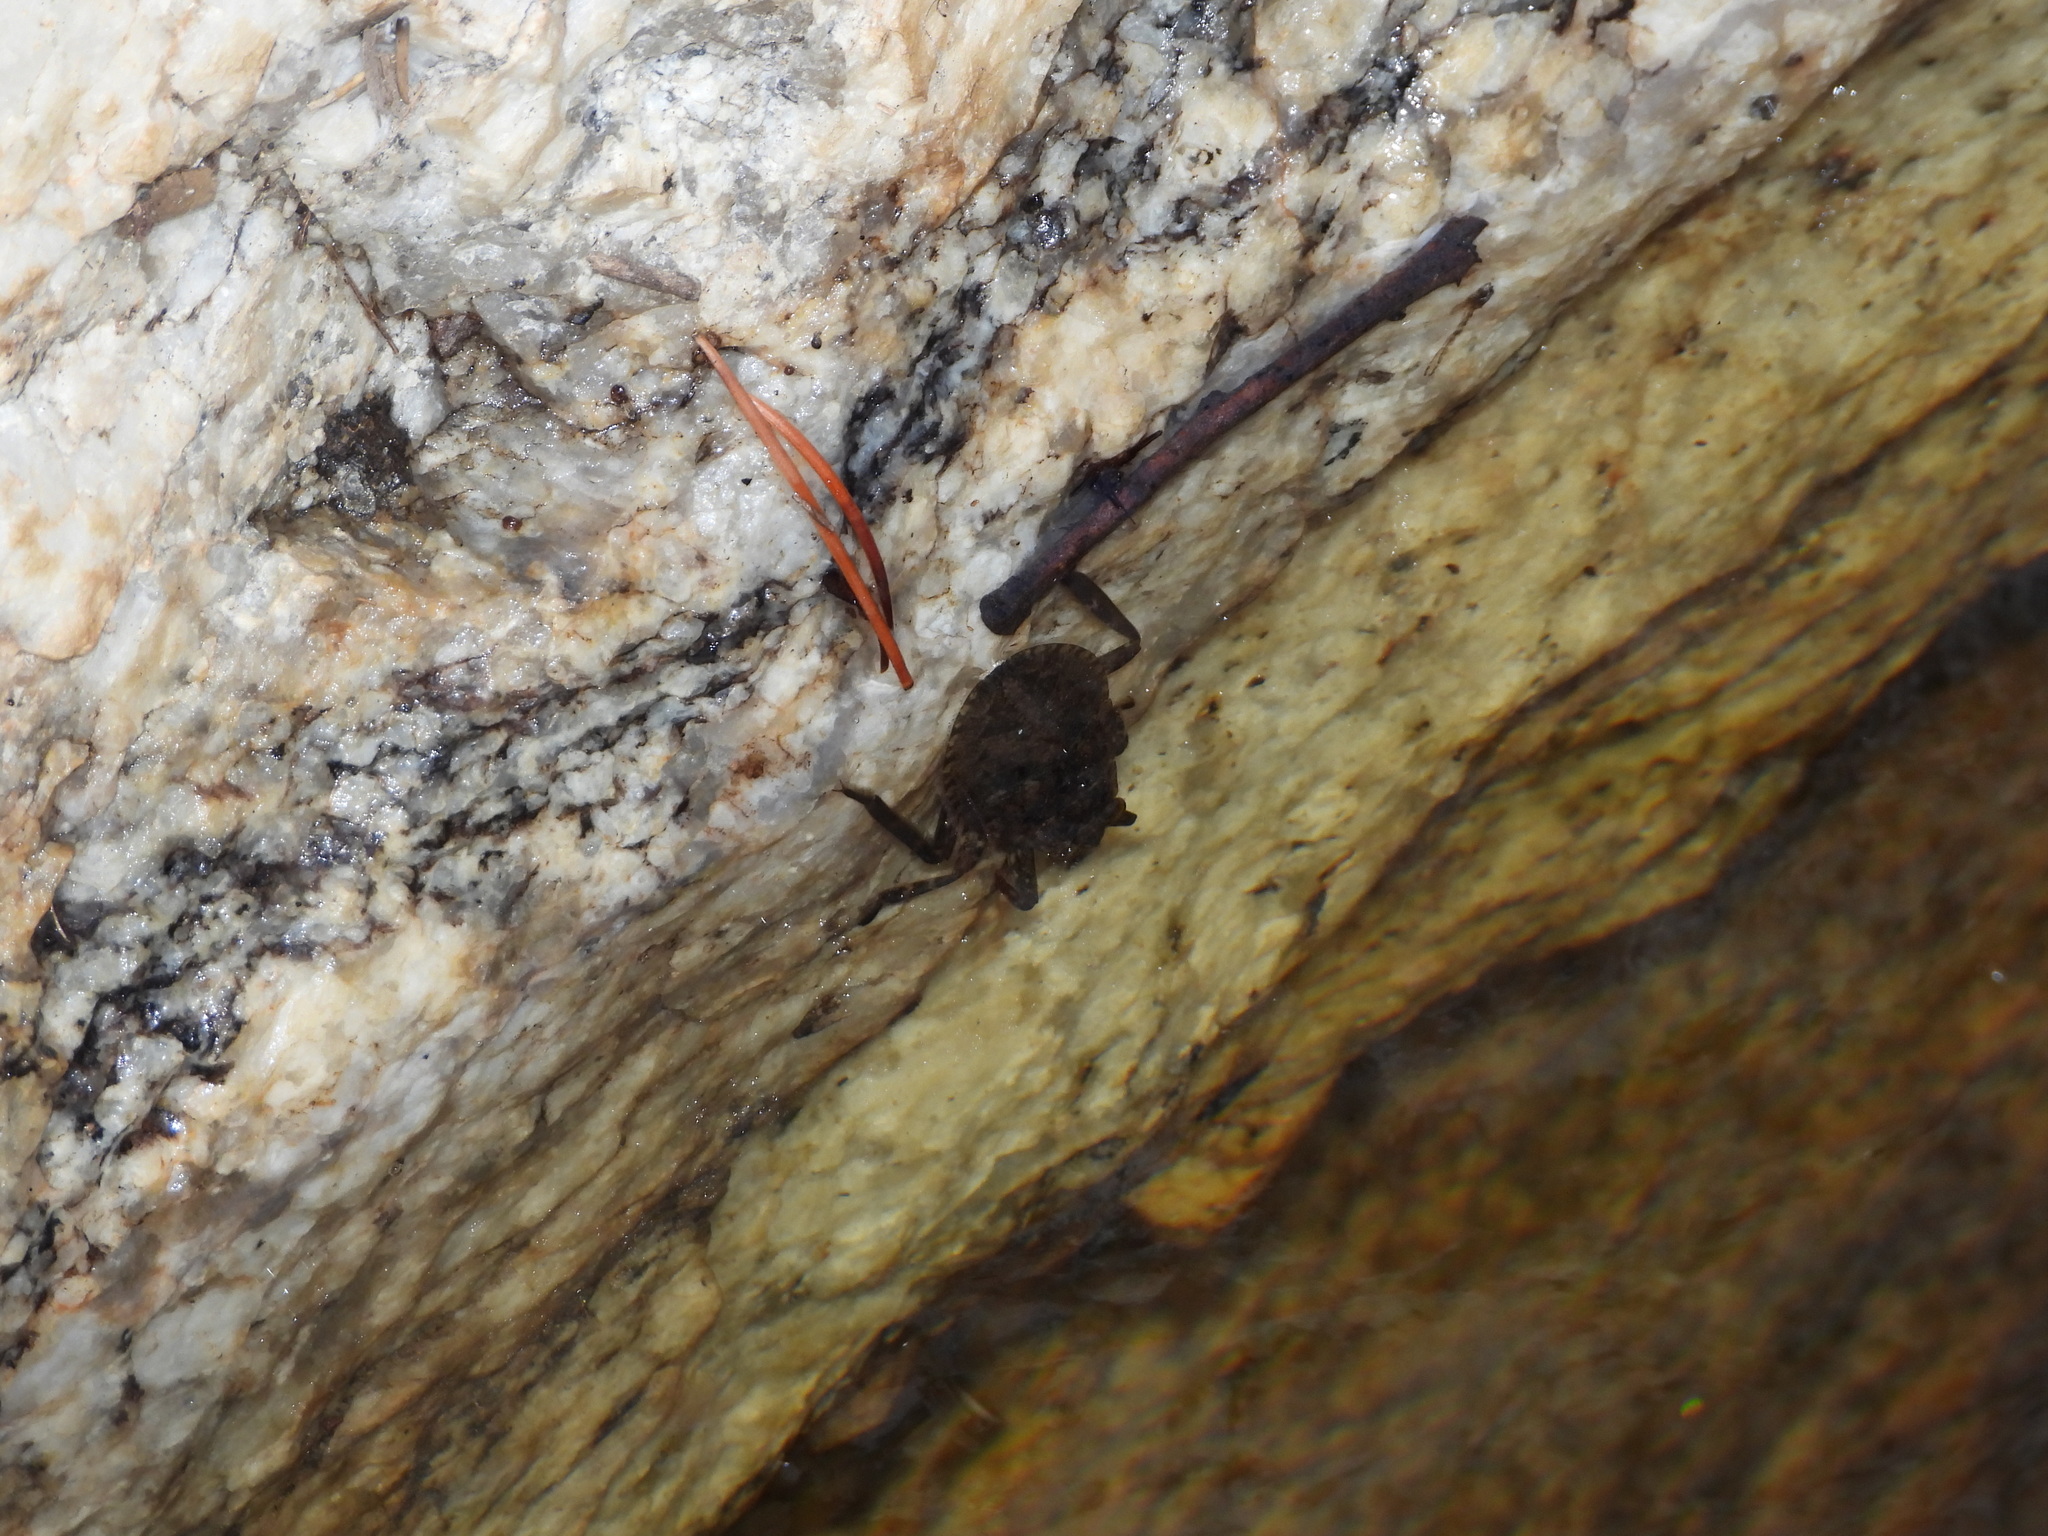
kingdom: Animalia
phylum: Arthropoda
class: Insecta
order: Hemiptera
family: Belostomatidae
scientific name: Belostomatidae
